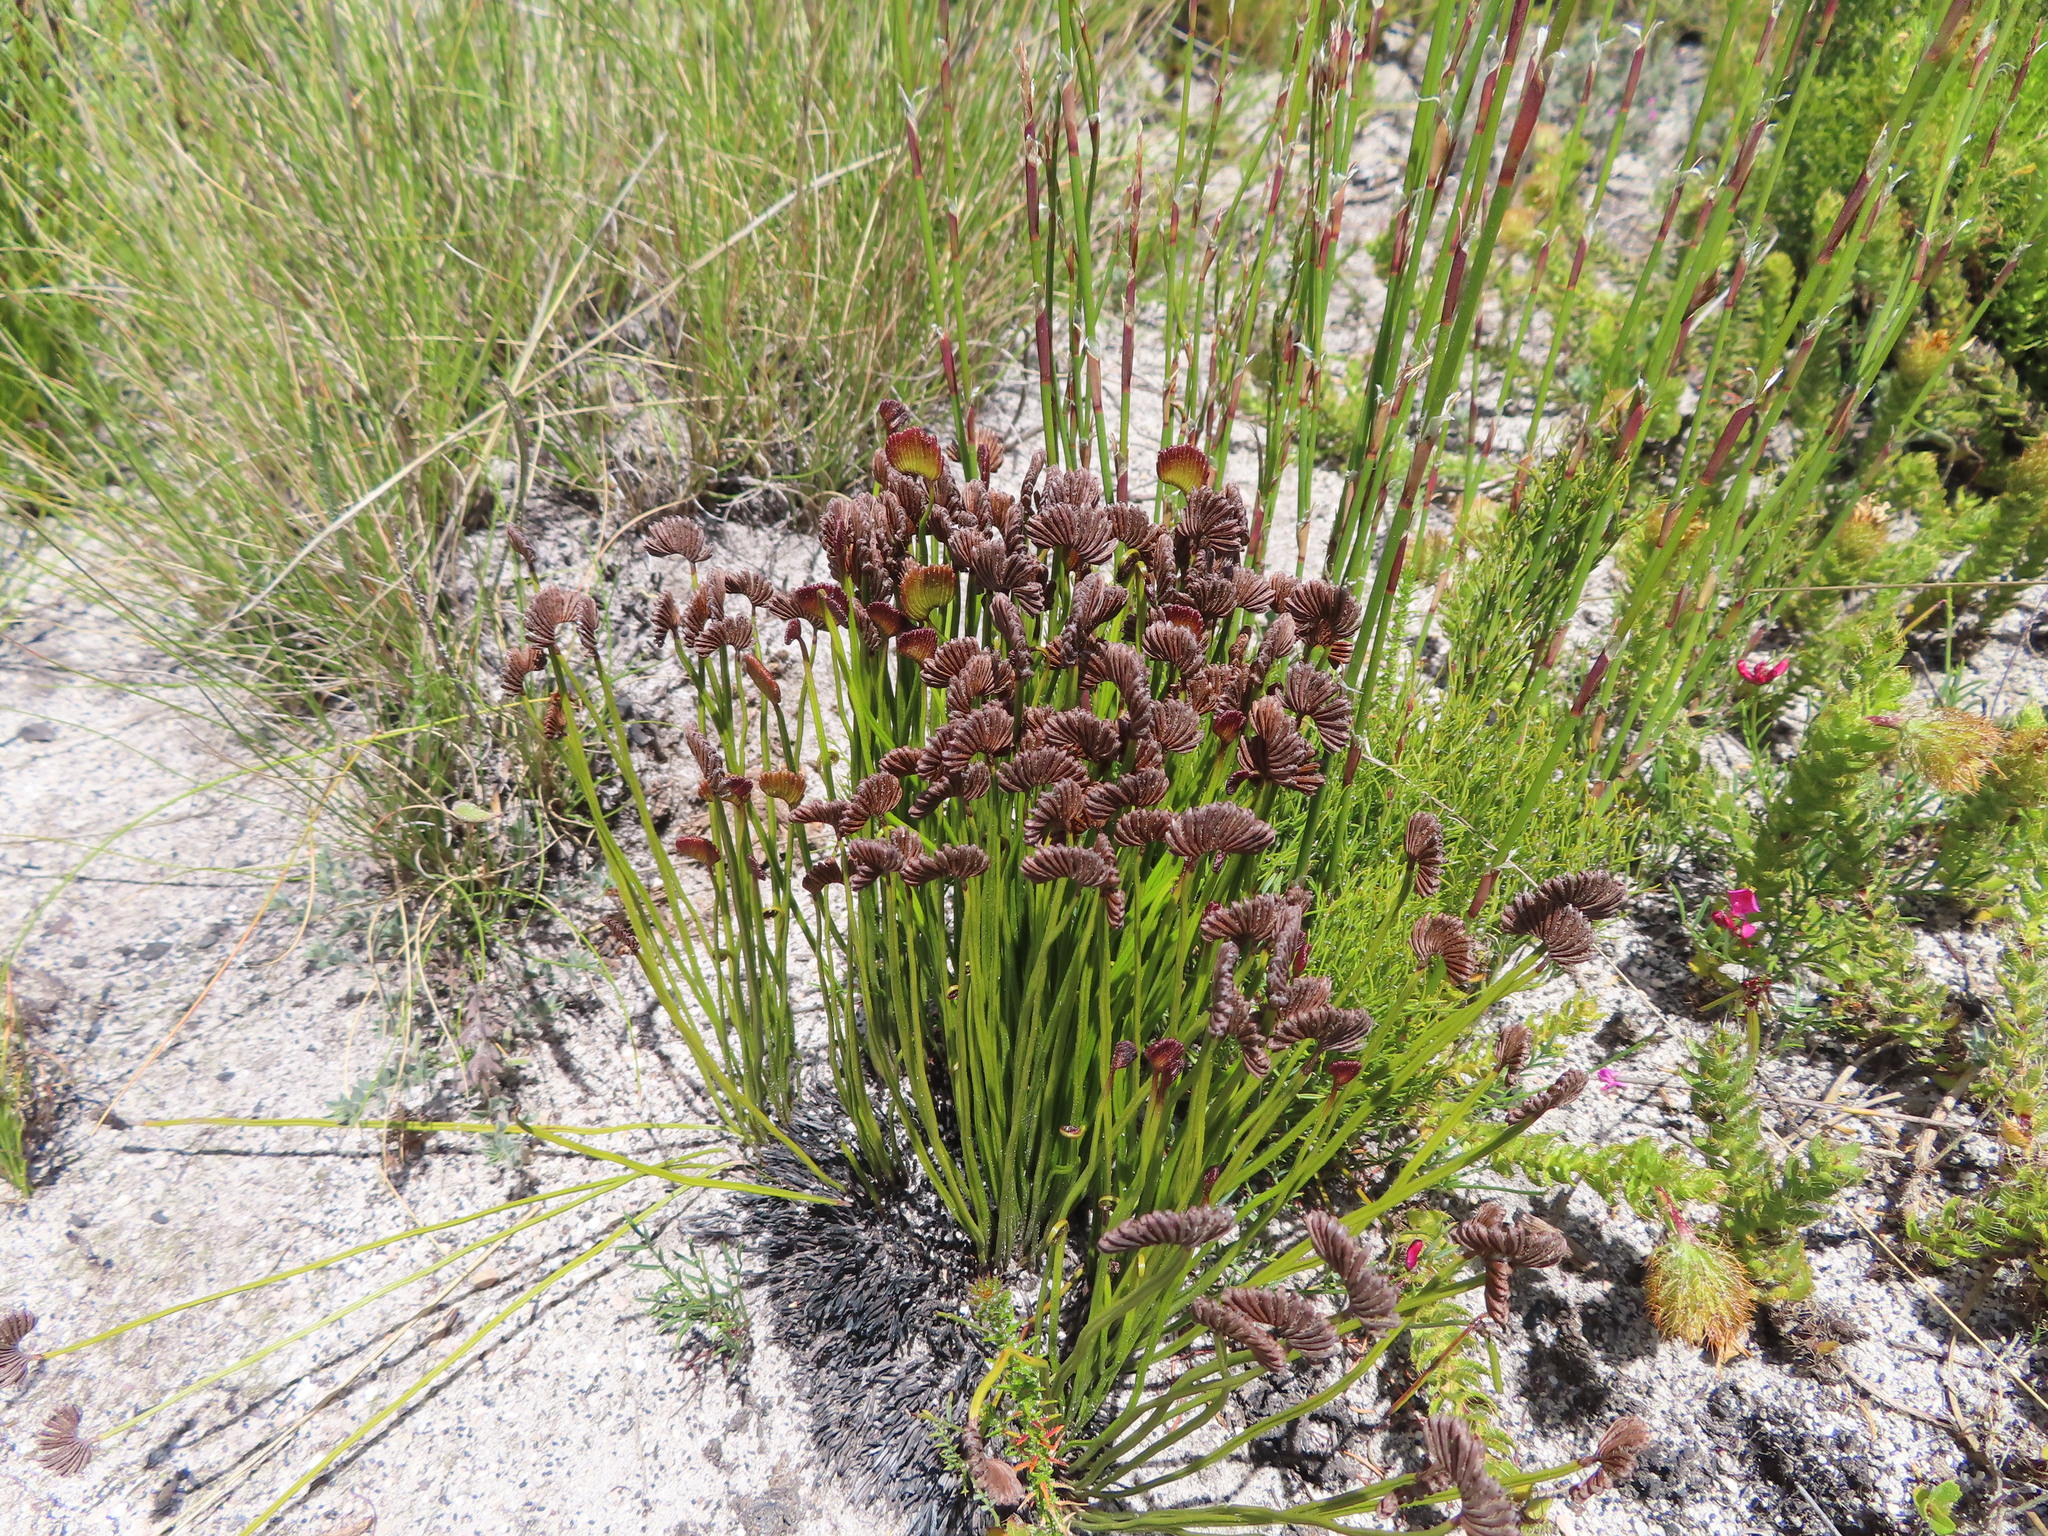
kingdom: Plantae
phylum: Tracheophyta
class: Polypodiopsida
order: Schizaeales
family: Schizaeaceae
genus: Schizaea
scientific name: Schizaea pectinata
